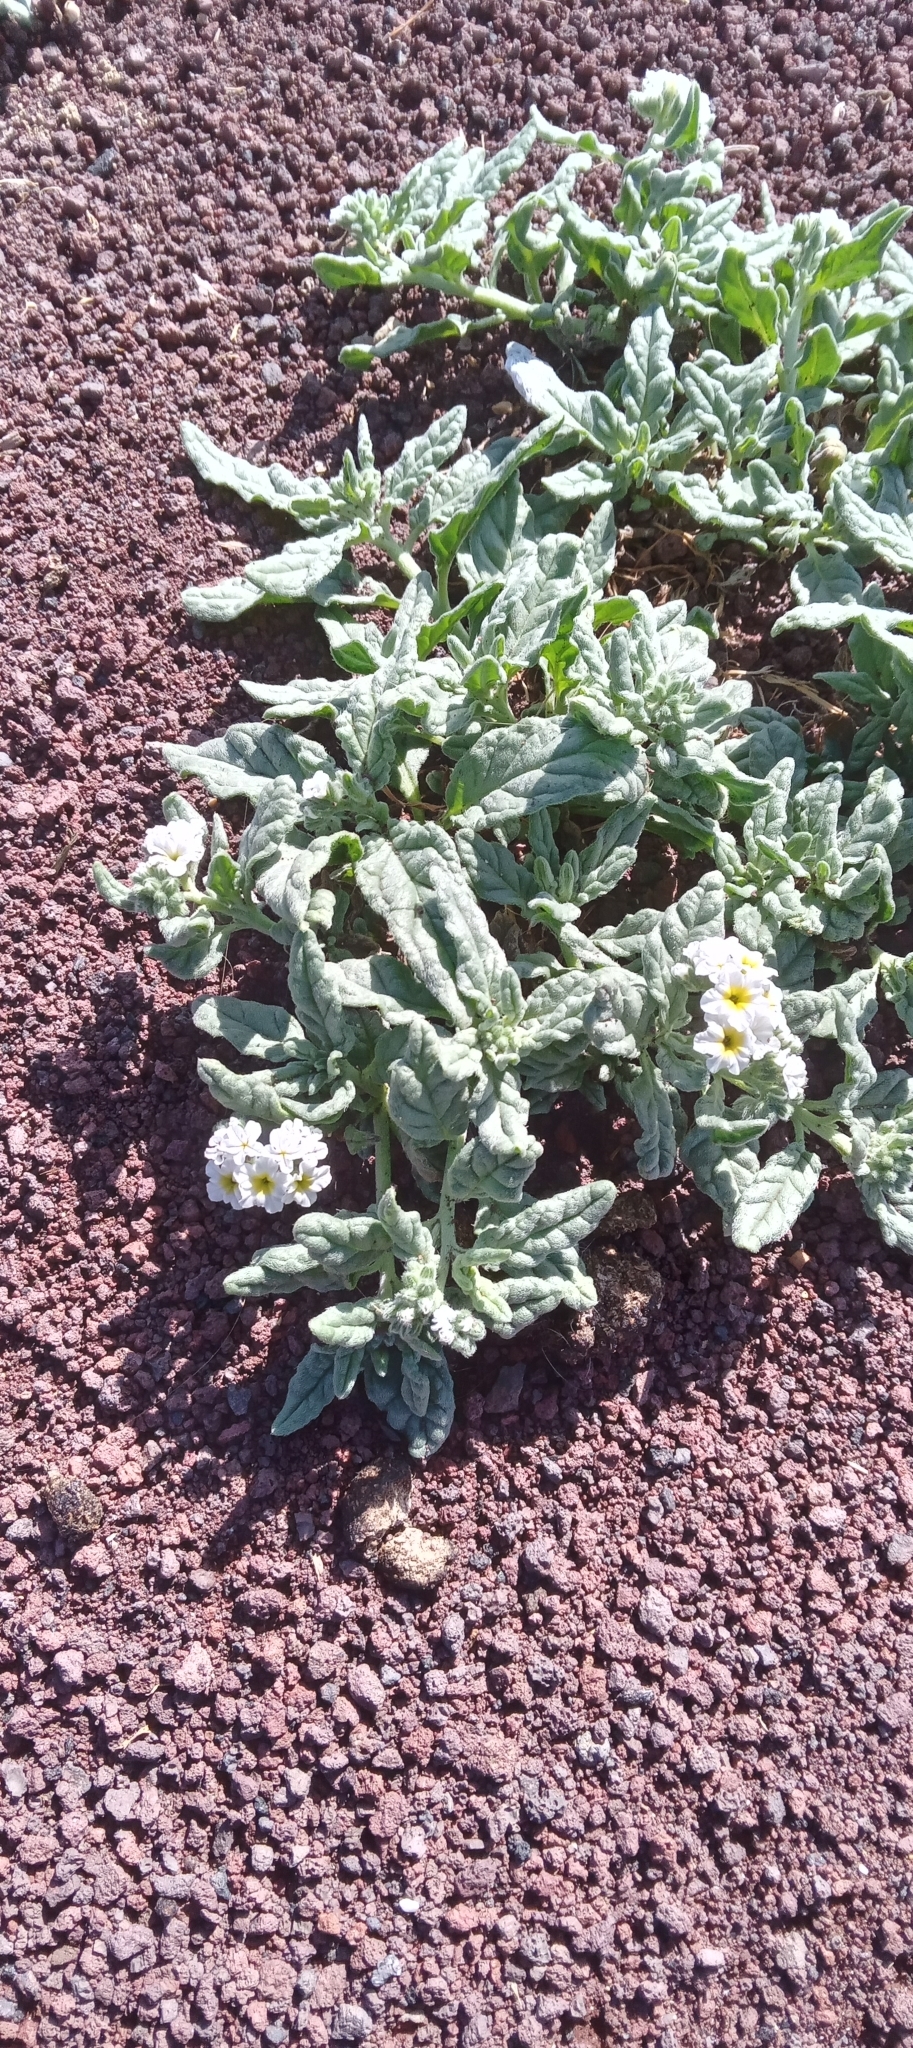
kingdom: Plantae
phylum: Tracheophyta
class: Magnoliopsida
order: Boraginales
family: Heliotropiaceae
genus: Heliotropium
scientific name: Heliotropium ramosissimum
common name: Wavy heliotrope
